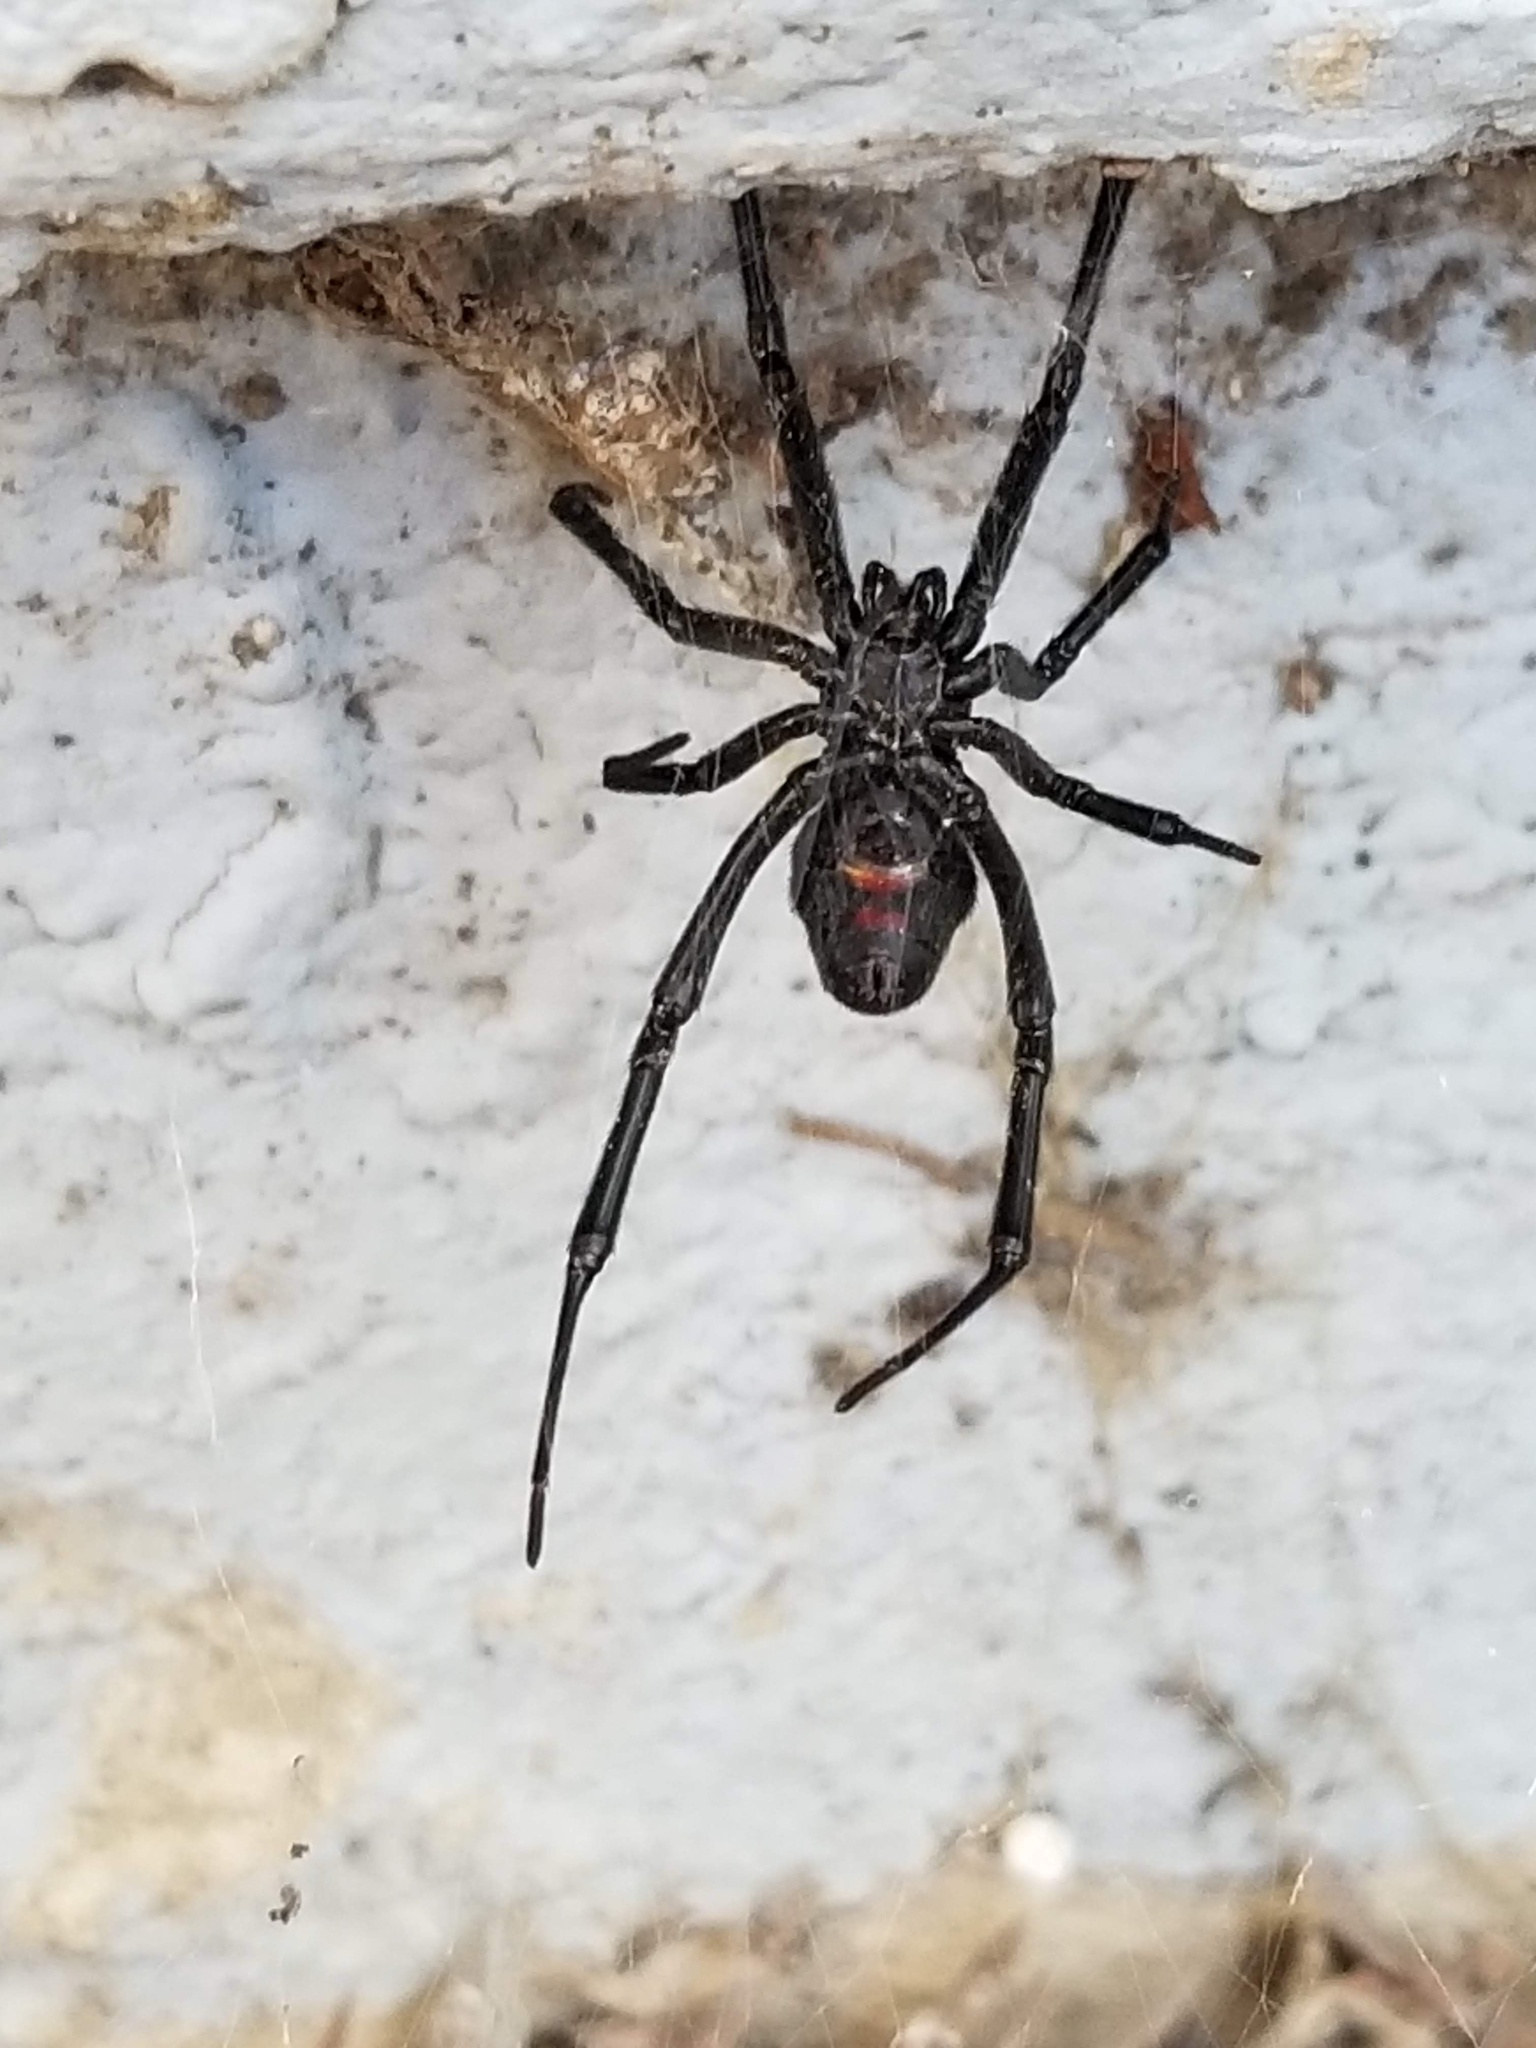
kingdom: Animalia
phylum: Arthropoda
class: Arachnida
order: Araneae
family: Theridiidae
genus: Latrodectus
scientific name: Latrodectus hesperus
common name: Western black widow
